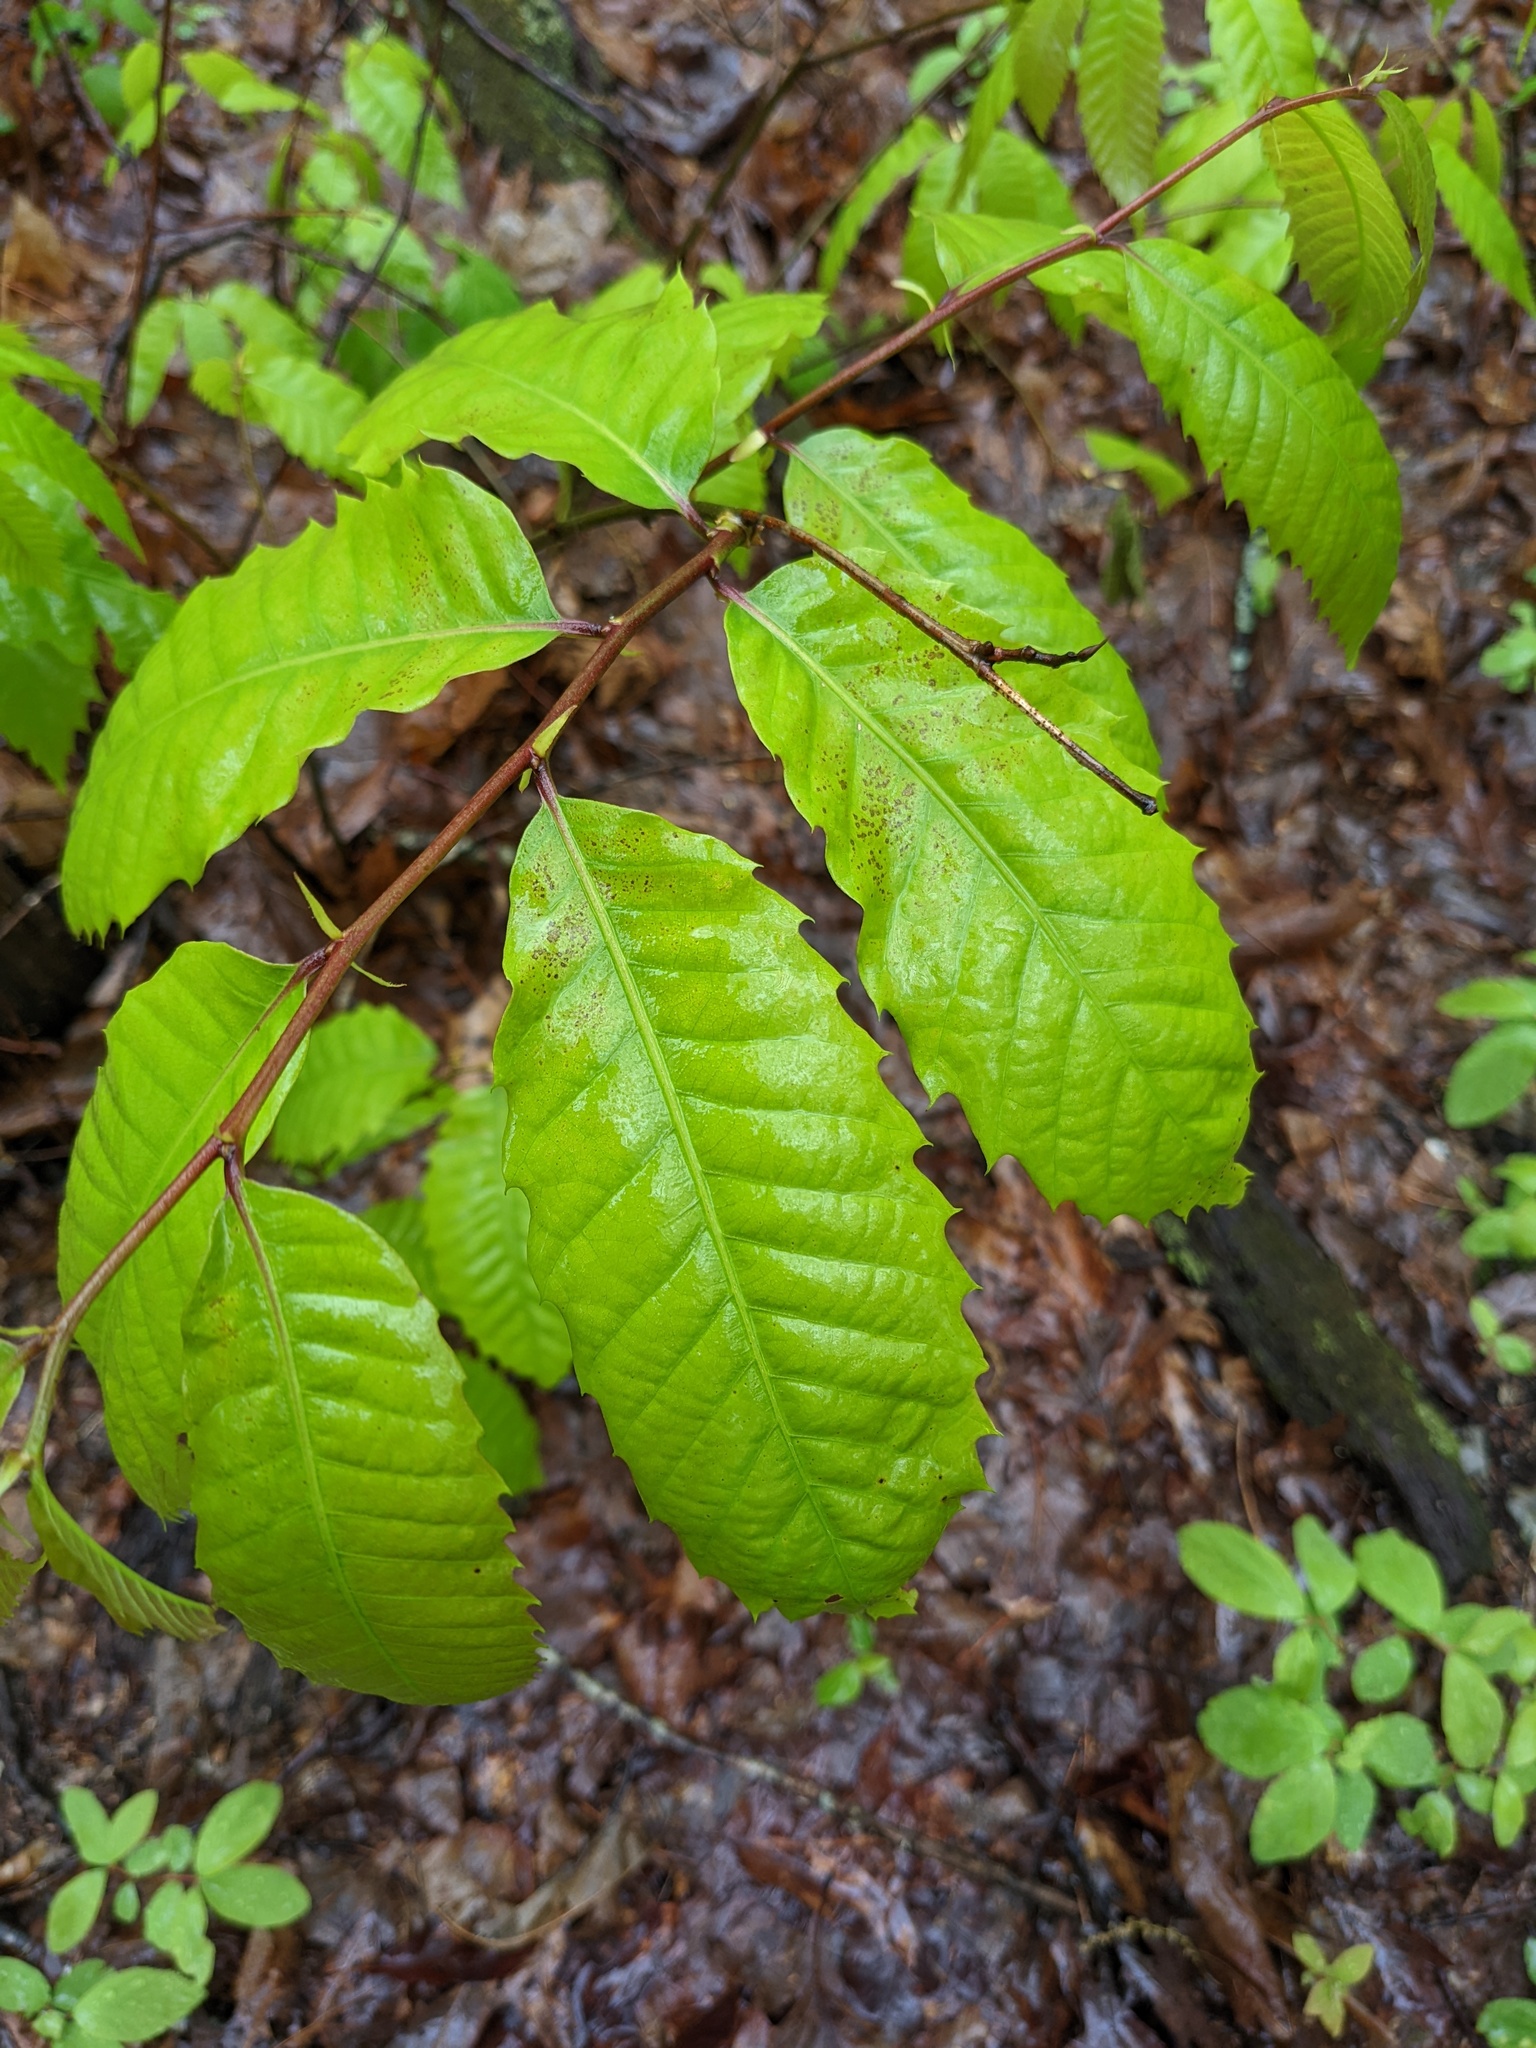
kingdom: Plantae
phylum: Tracheophyta
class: Magnoliopsida
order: Fagales
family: Fagaceae
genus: Castanea
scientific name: Castanea dentata
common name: American chestnut
